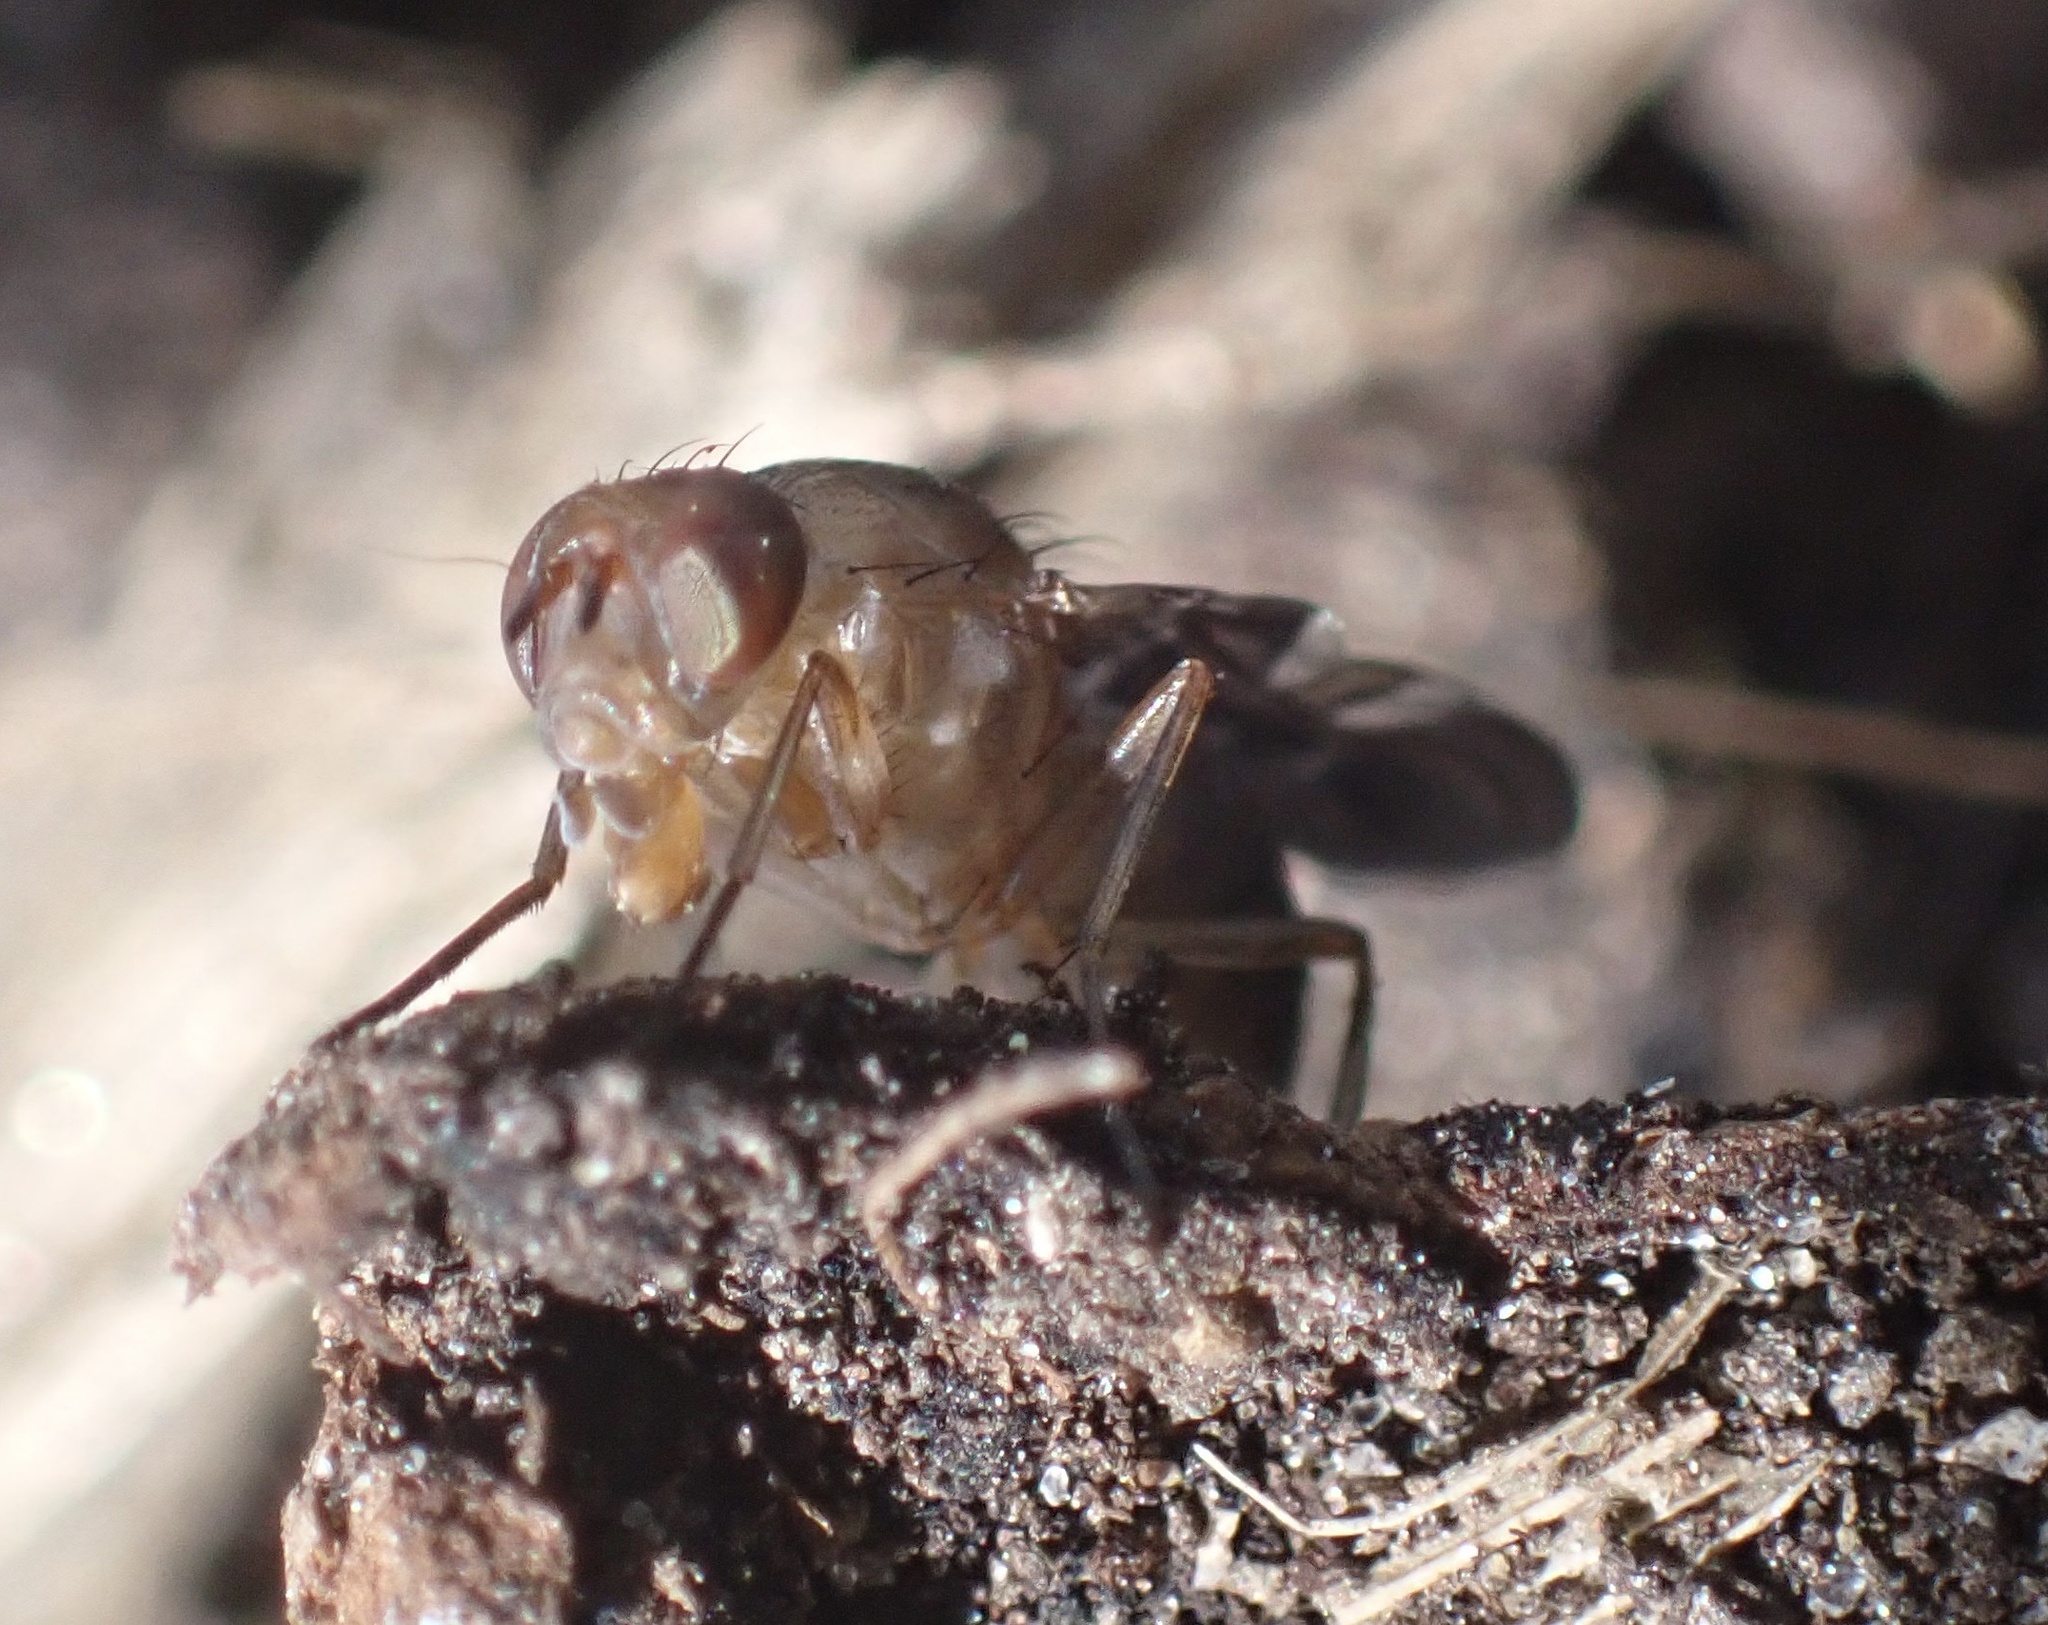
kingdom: Animalia
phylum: Arthropoda
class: Insecta
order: Diptera
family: Ulidiidae
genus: Delphinia
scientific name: Delphinia picta
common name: Common picture-winged fly
